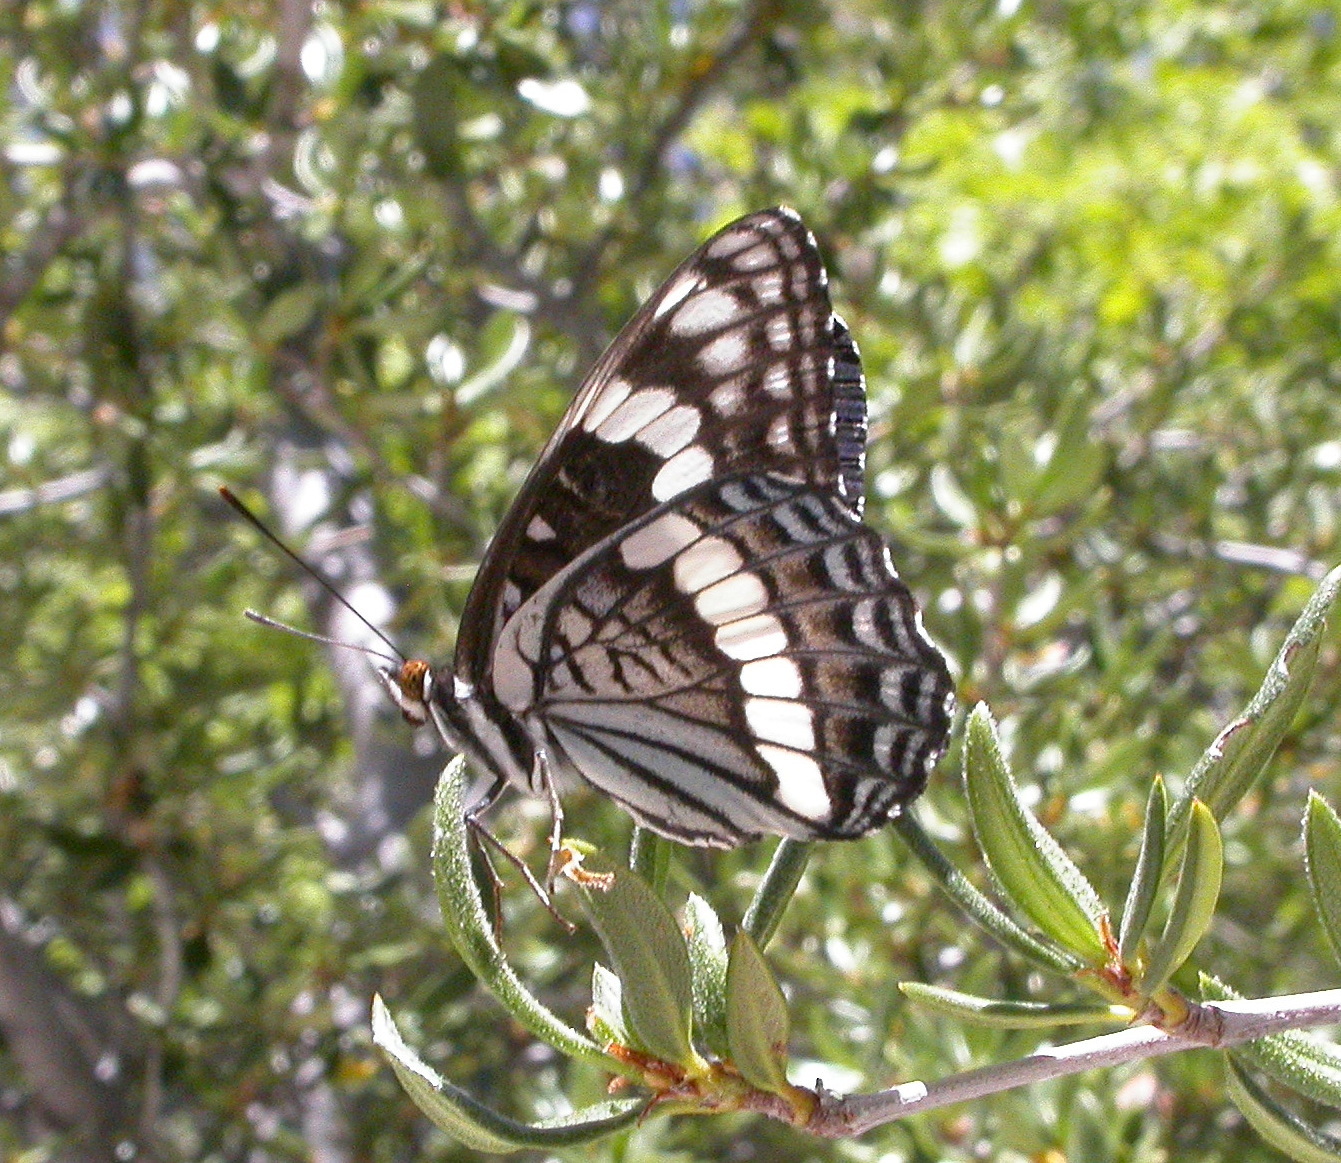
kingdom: Animalia
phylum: Arthropoda
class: Insecta
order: Lepidoptera
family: Nymphalidae
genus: Limenitis
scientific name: Limenitis weidermeyerii
